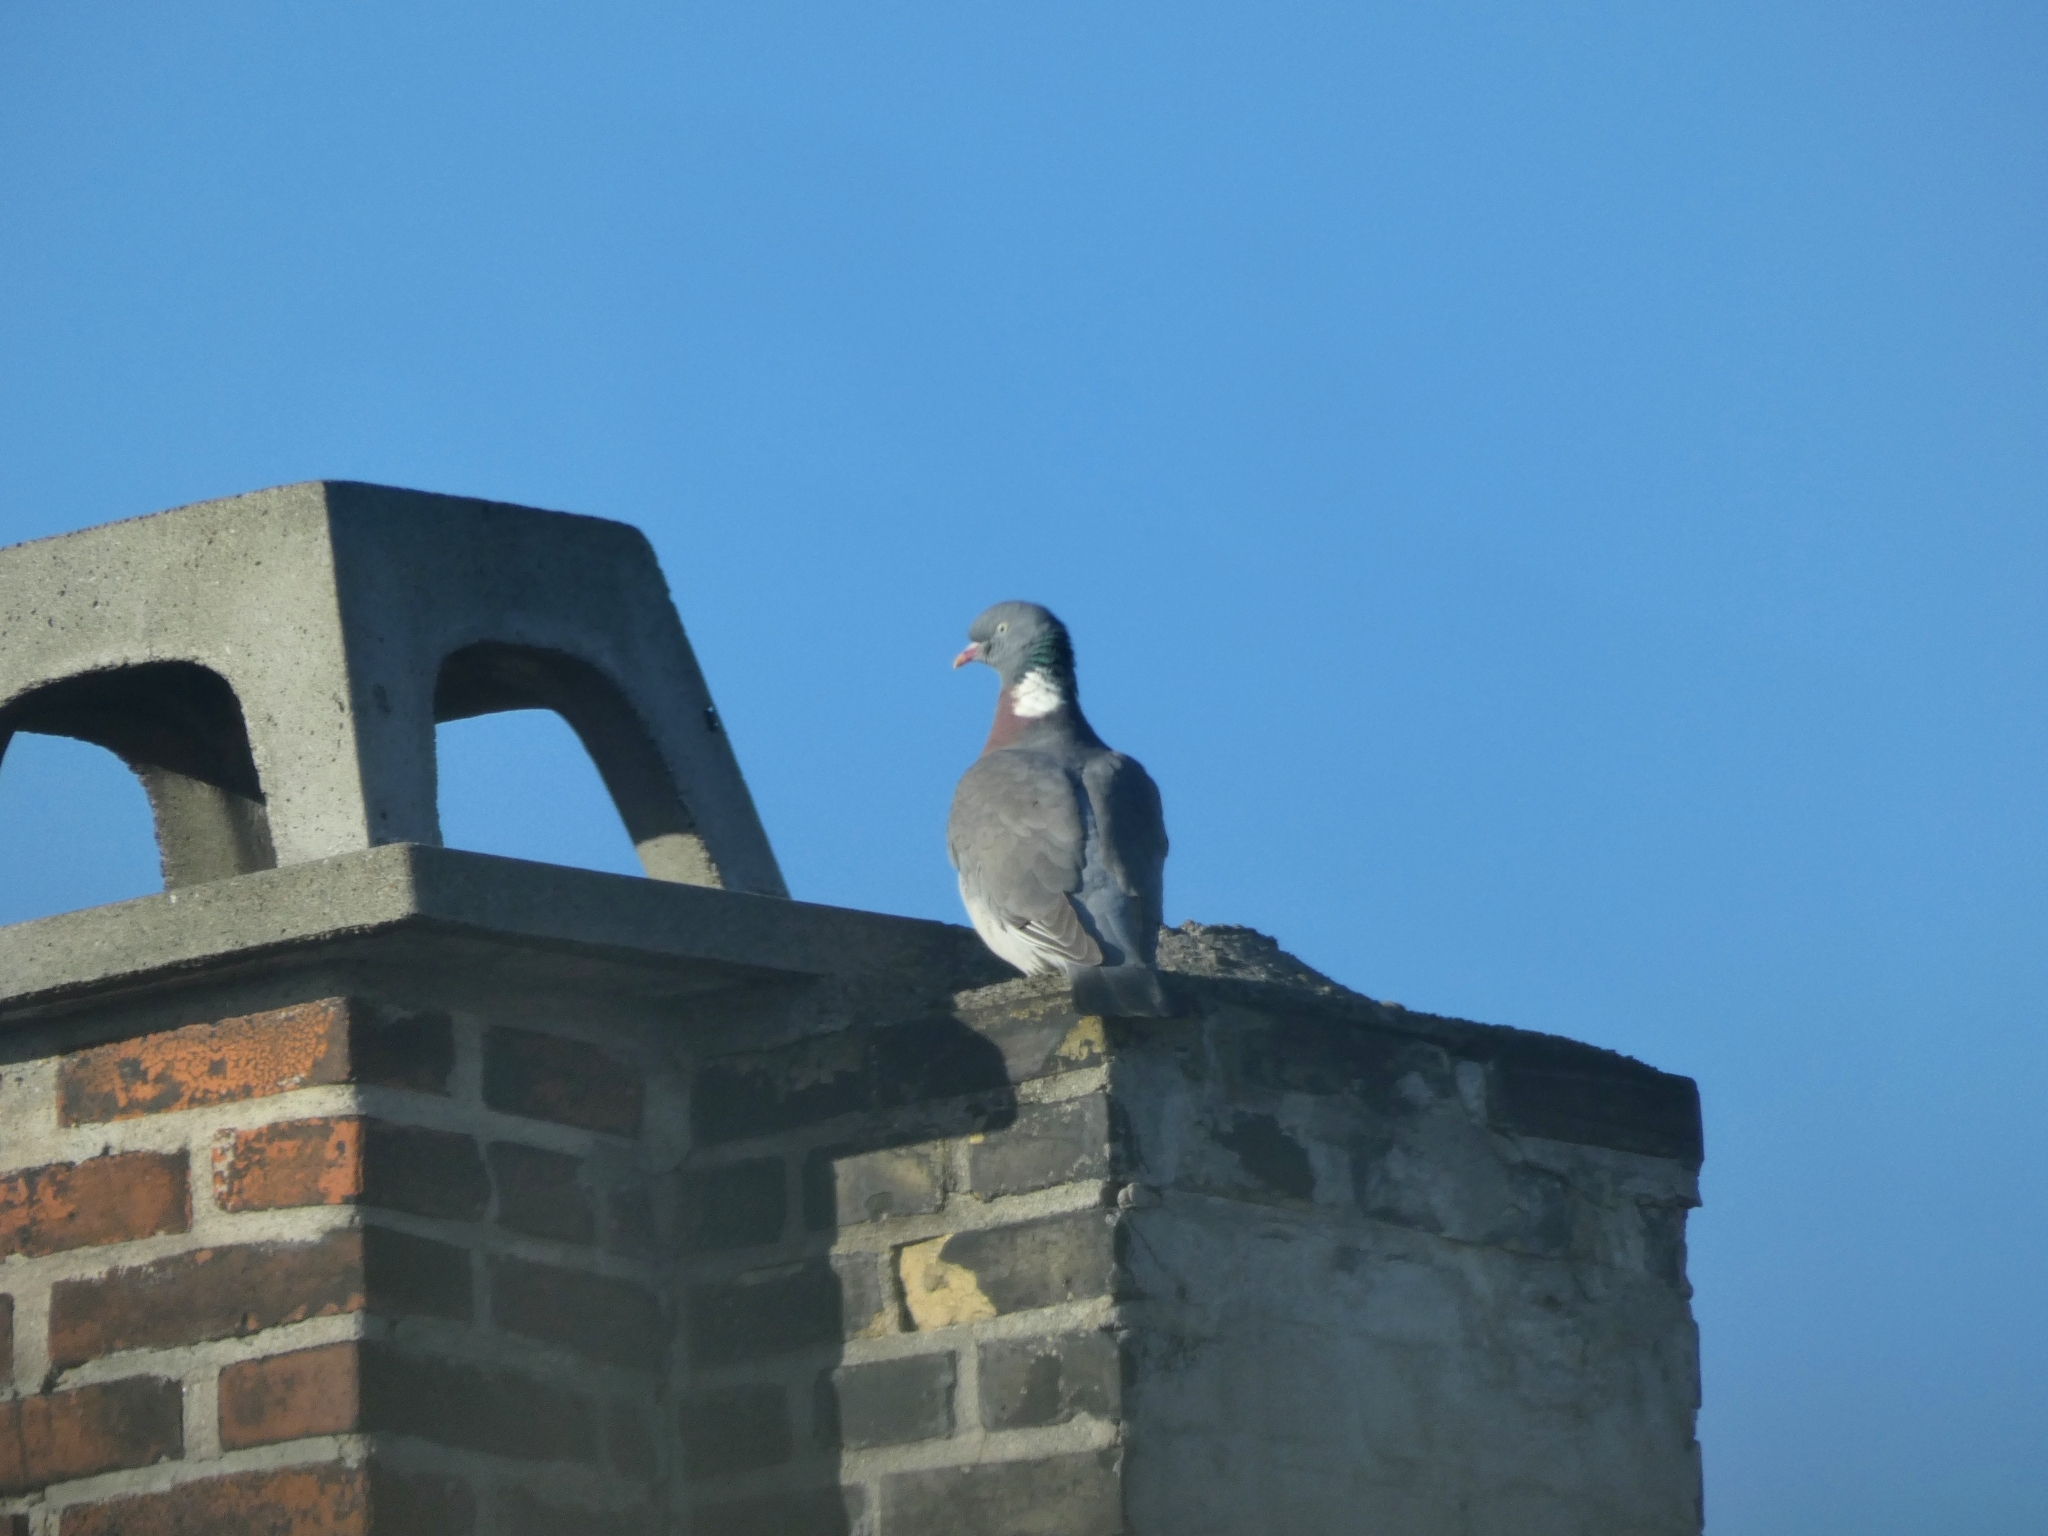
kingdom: Animalia
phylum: Chordata
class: Aves
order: Columbiformes
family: Columbidae
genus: Columba
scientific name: Columba palumbus
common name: Common wood pigeon
